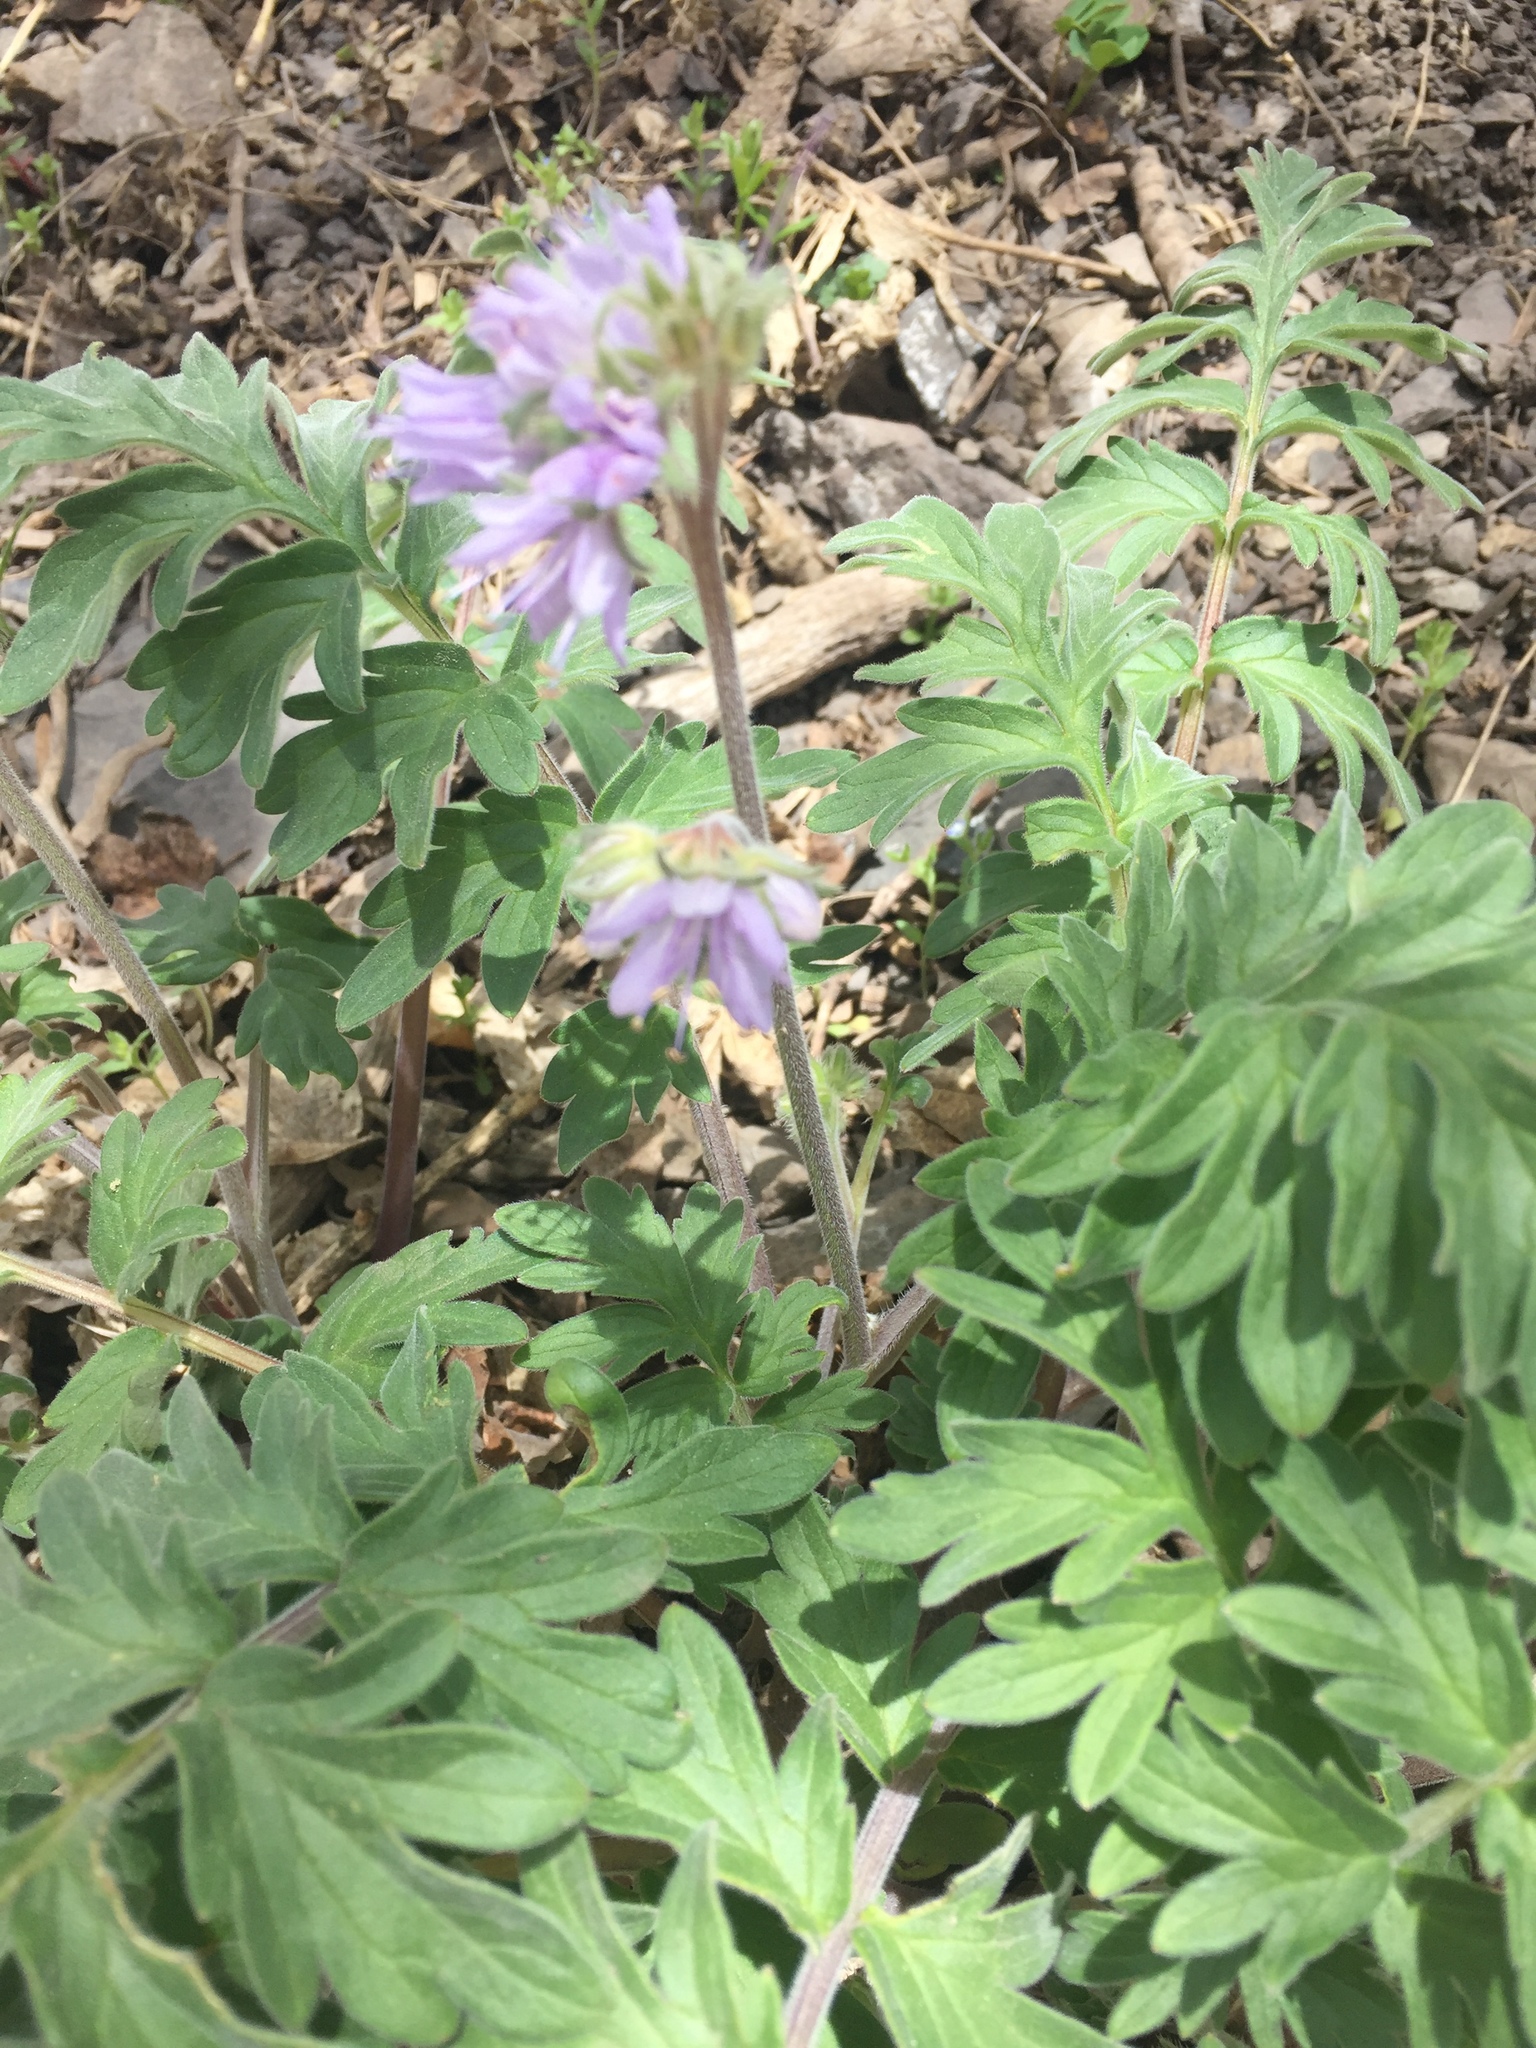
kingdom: Plantae
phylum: Tracheophyta
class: Magnoliopsida
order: Boraginales
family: Hydrophyllaceae
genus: Hydrophyllum
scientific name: Hydrophyllum capitatum
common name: Woollen-breeches
